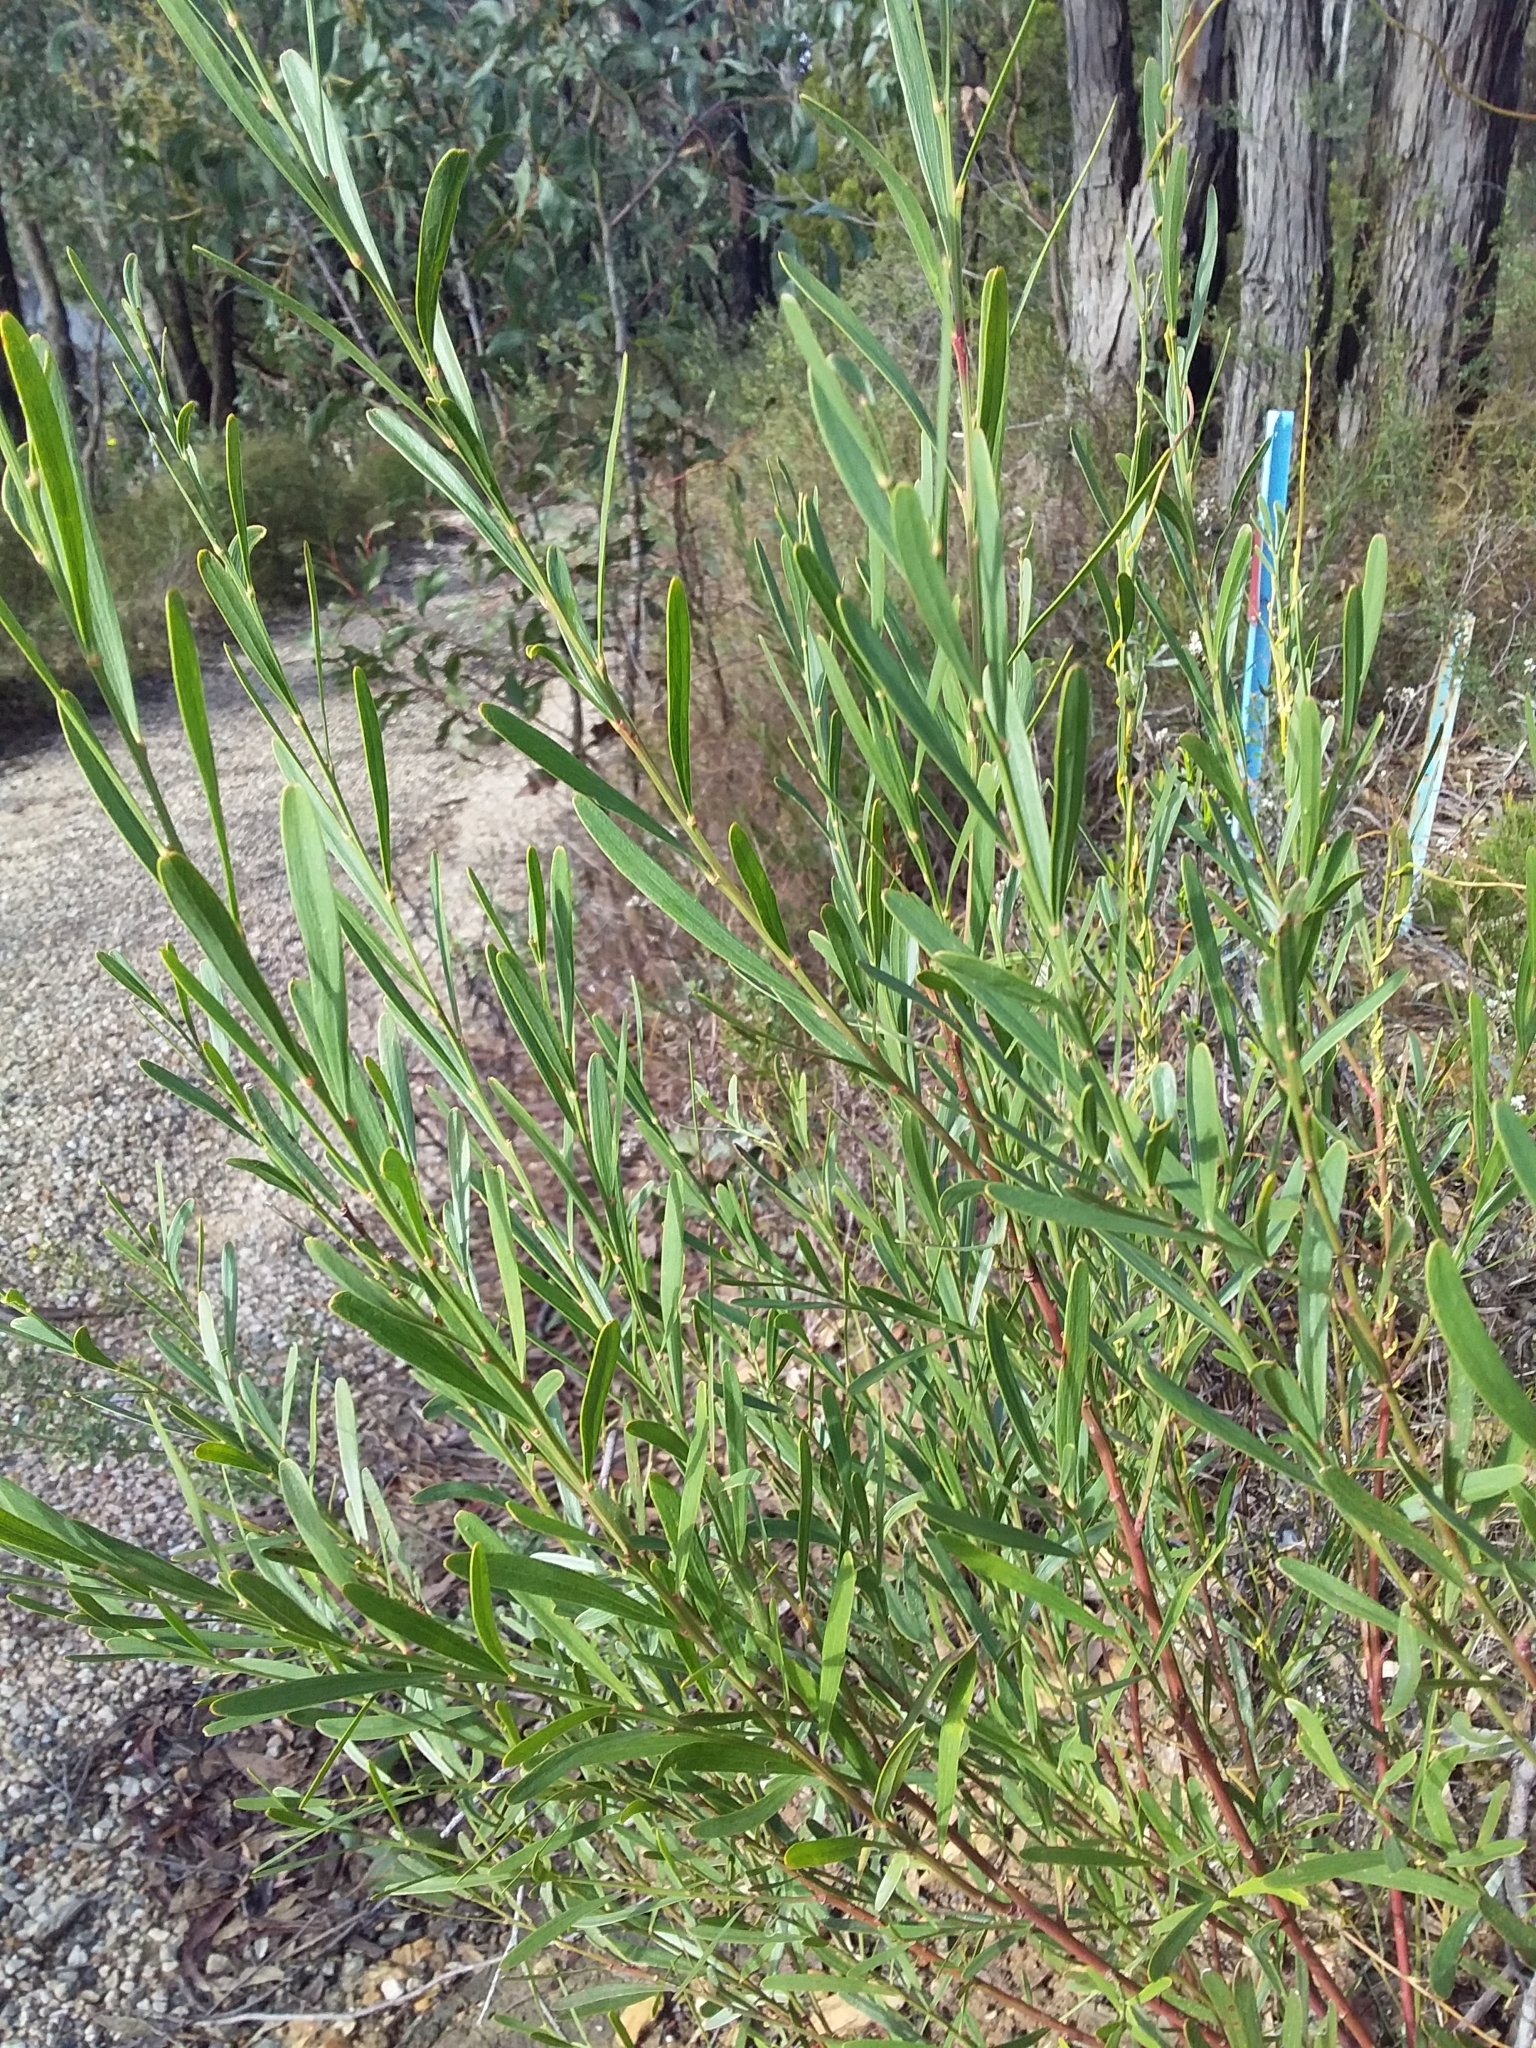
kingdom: Plantae
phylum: Tracheophyta
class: Magnoliopsida
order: Fabales
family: Fabaceae
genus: Daviesia
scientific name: Daviesia leptophylla
